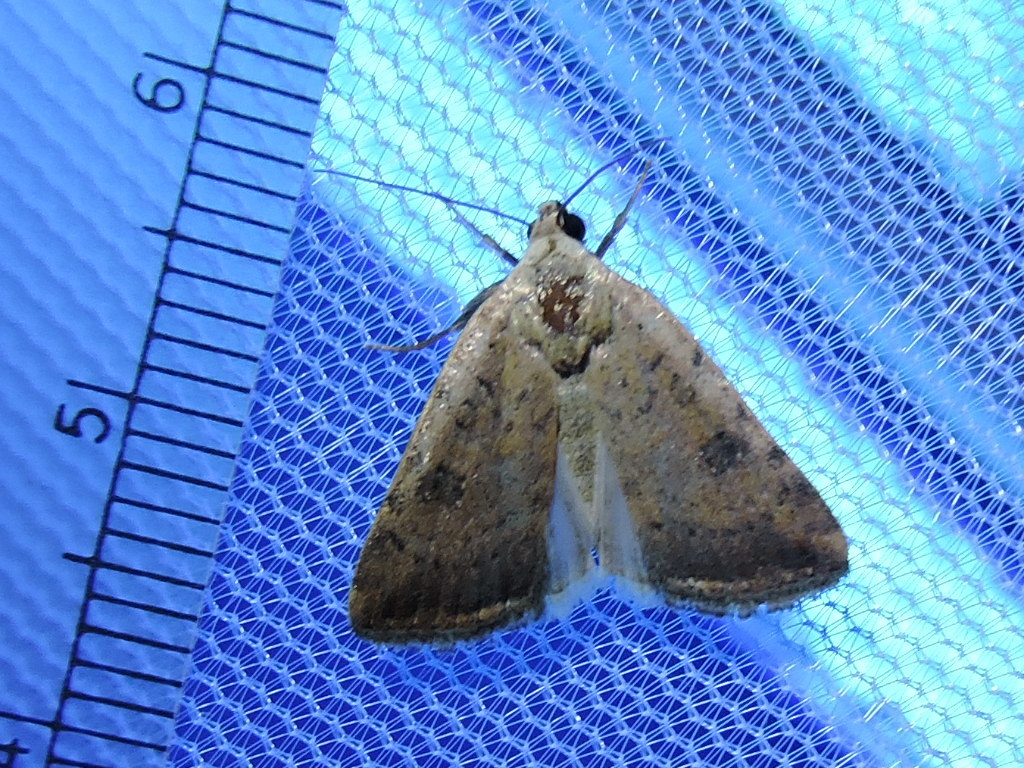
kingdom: Animalia
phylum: Arthropoda
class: Insecta
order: Lepidoptera
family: Noctuidae
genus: Micrathetis
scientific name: Micrathetis triplex
